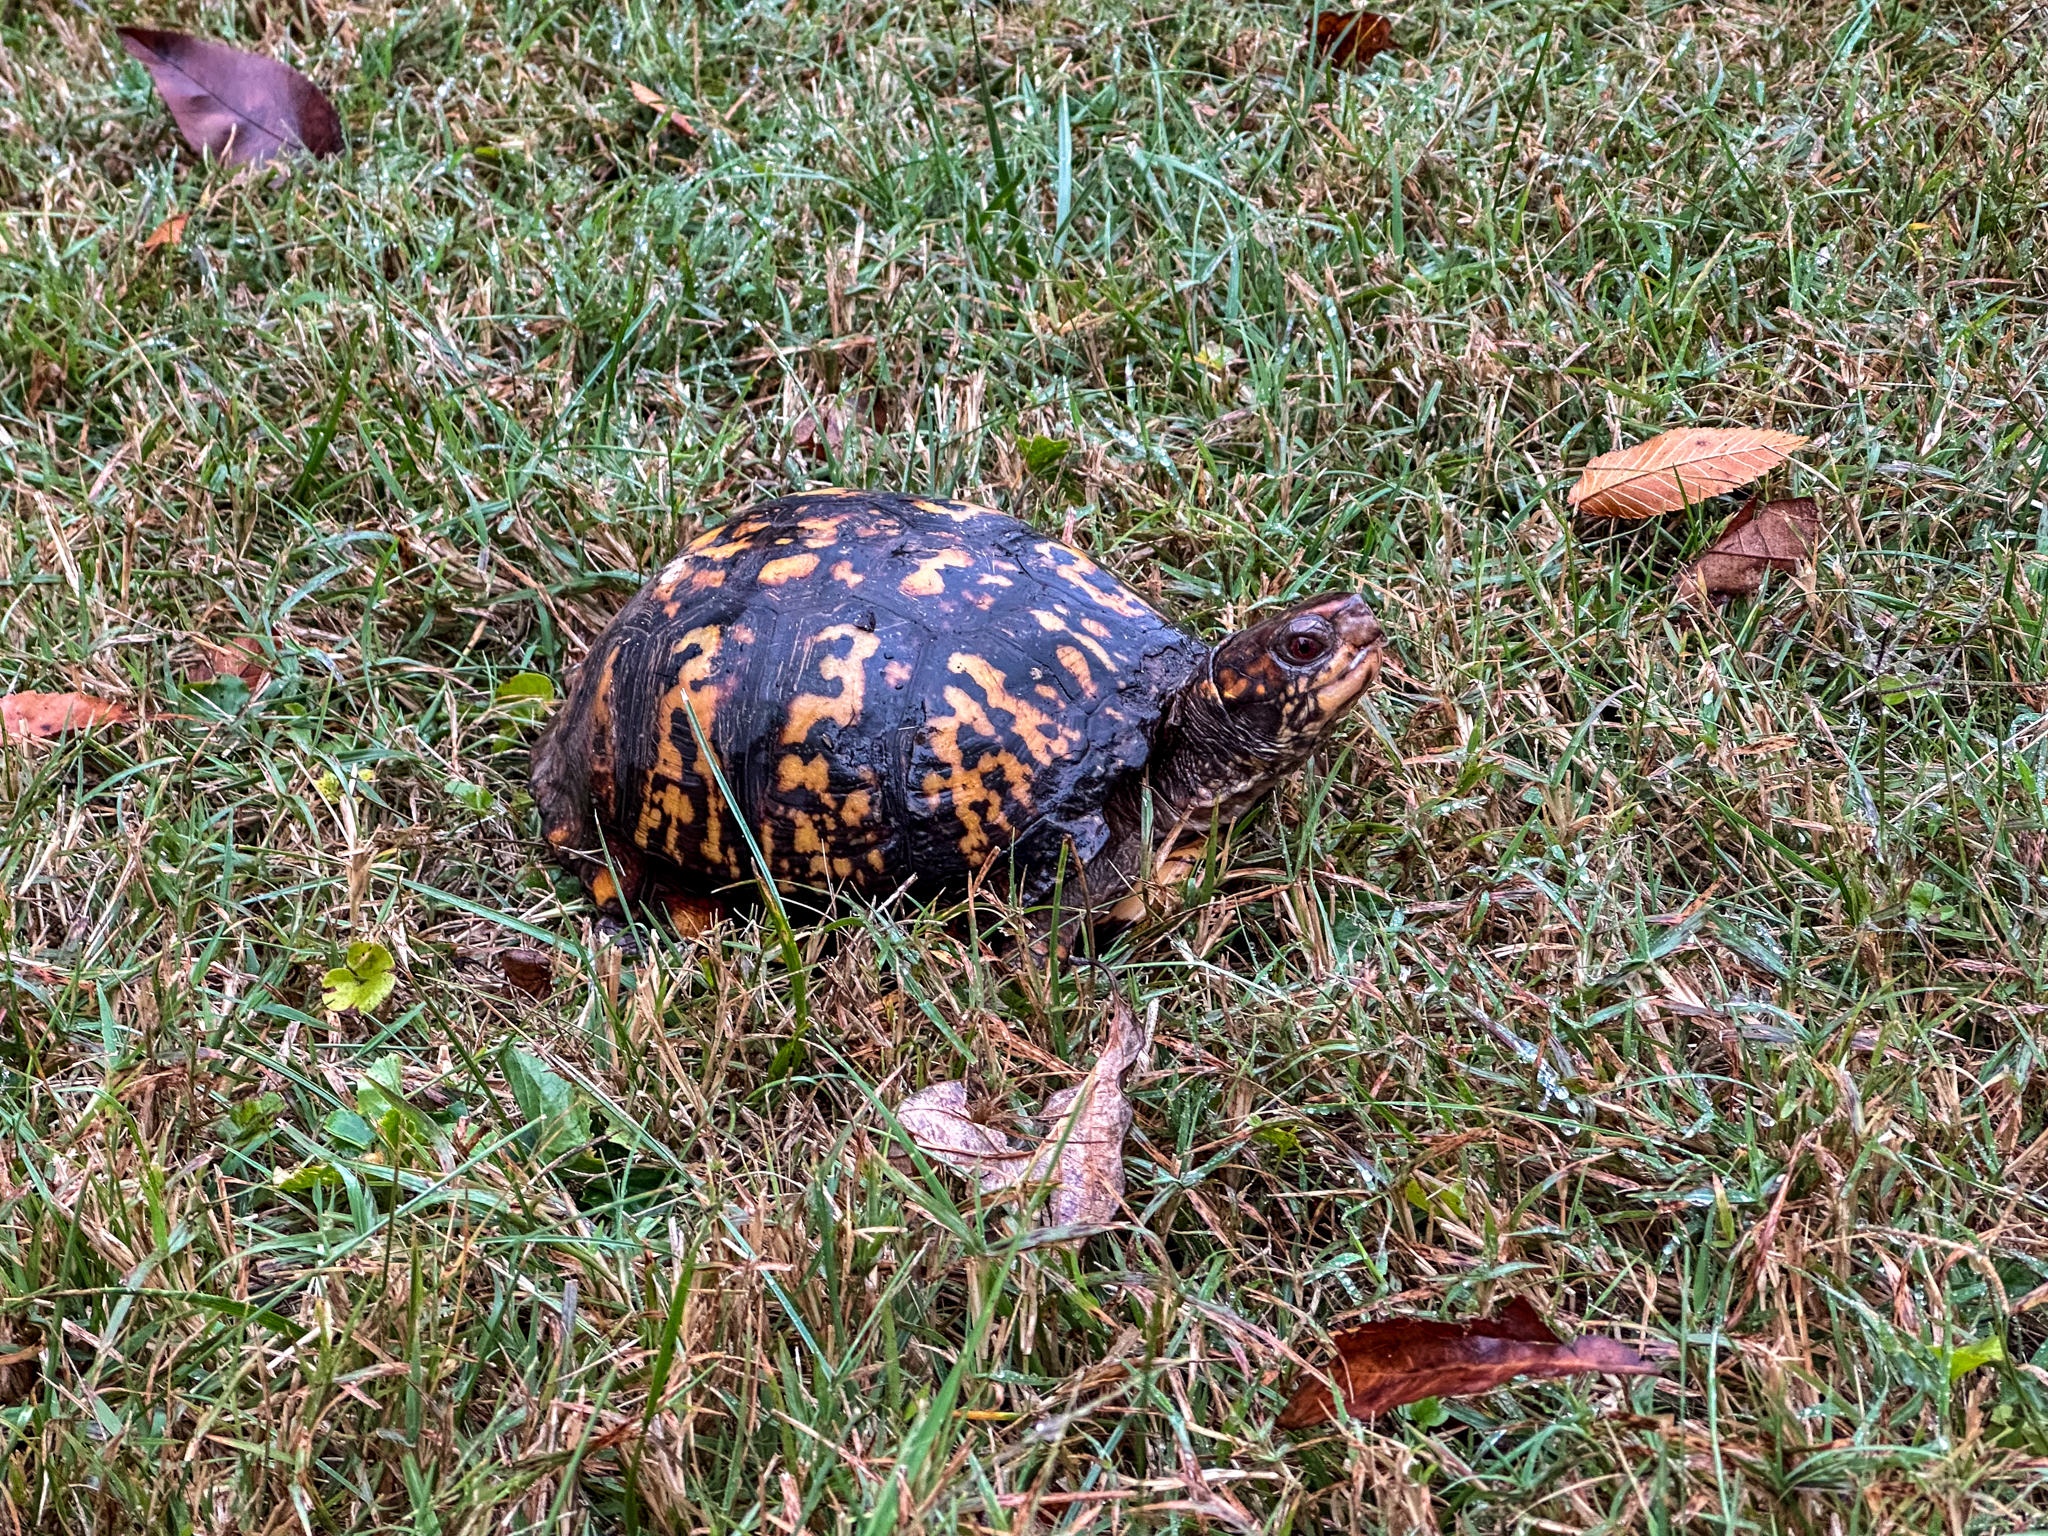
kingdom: Animalia
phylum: Chordata
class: Testudines
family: Emydidae
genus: Terrapene
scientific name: Terrapene carolina
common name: Common box turtle
